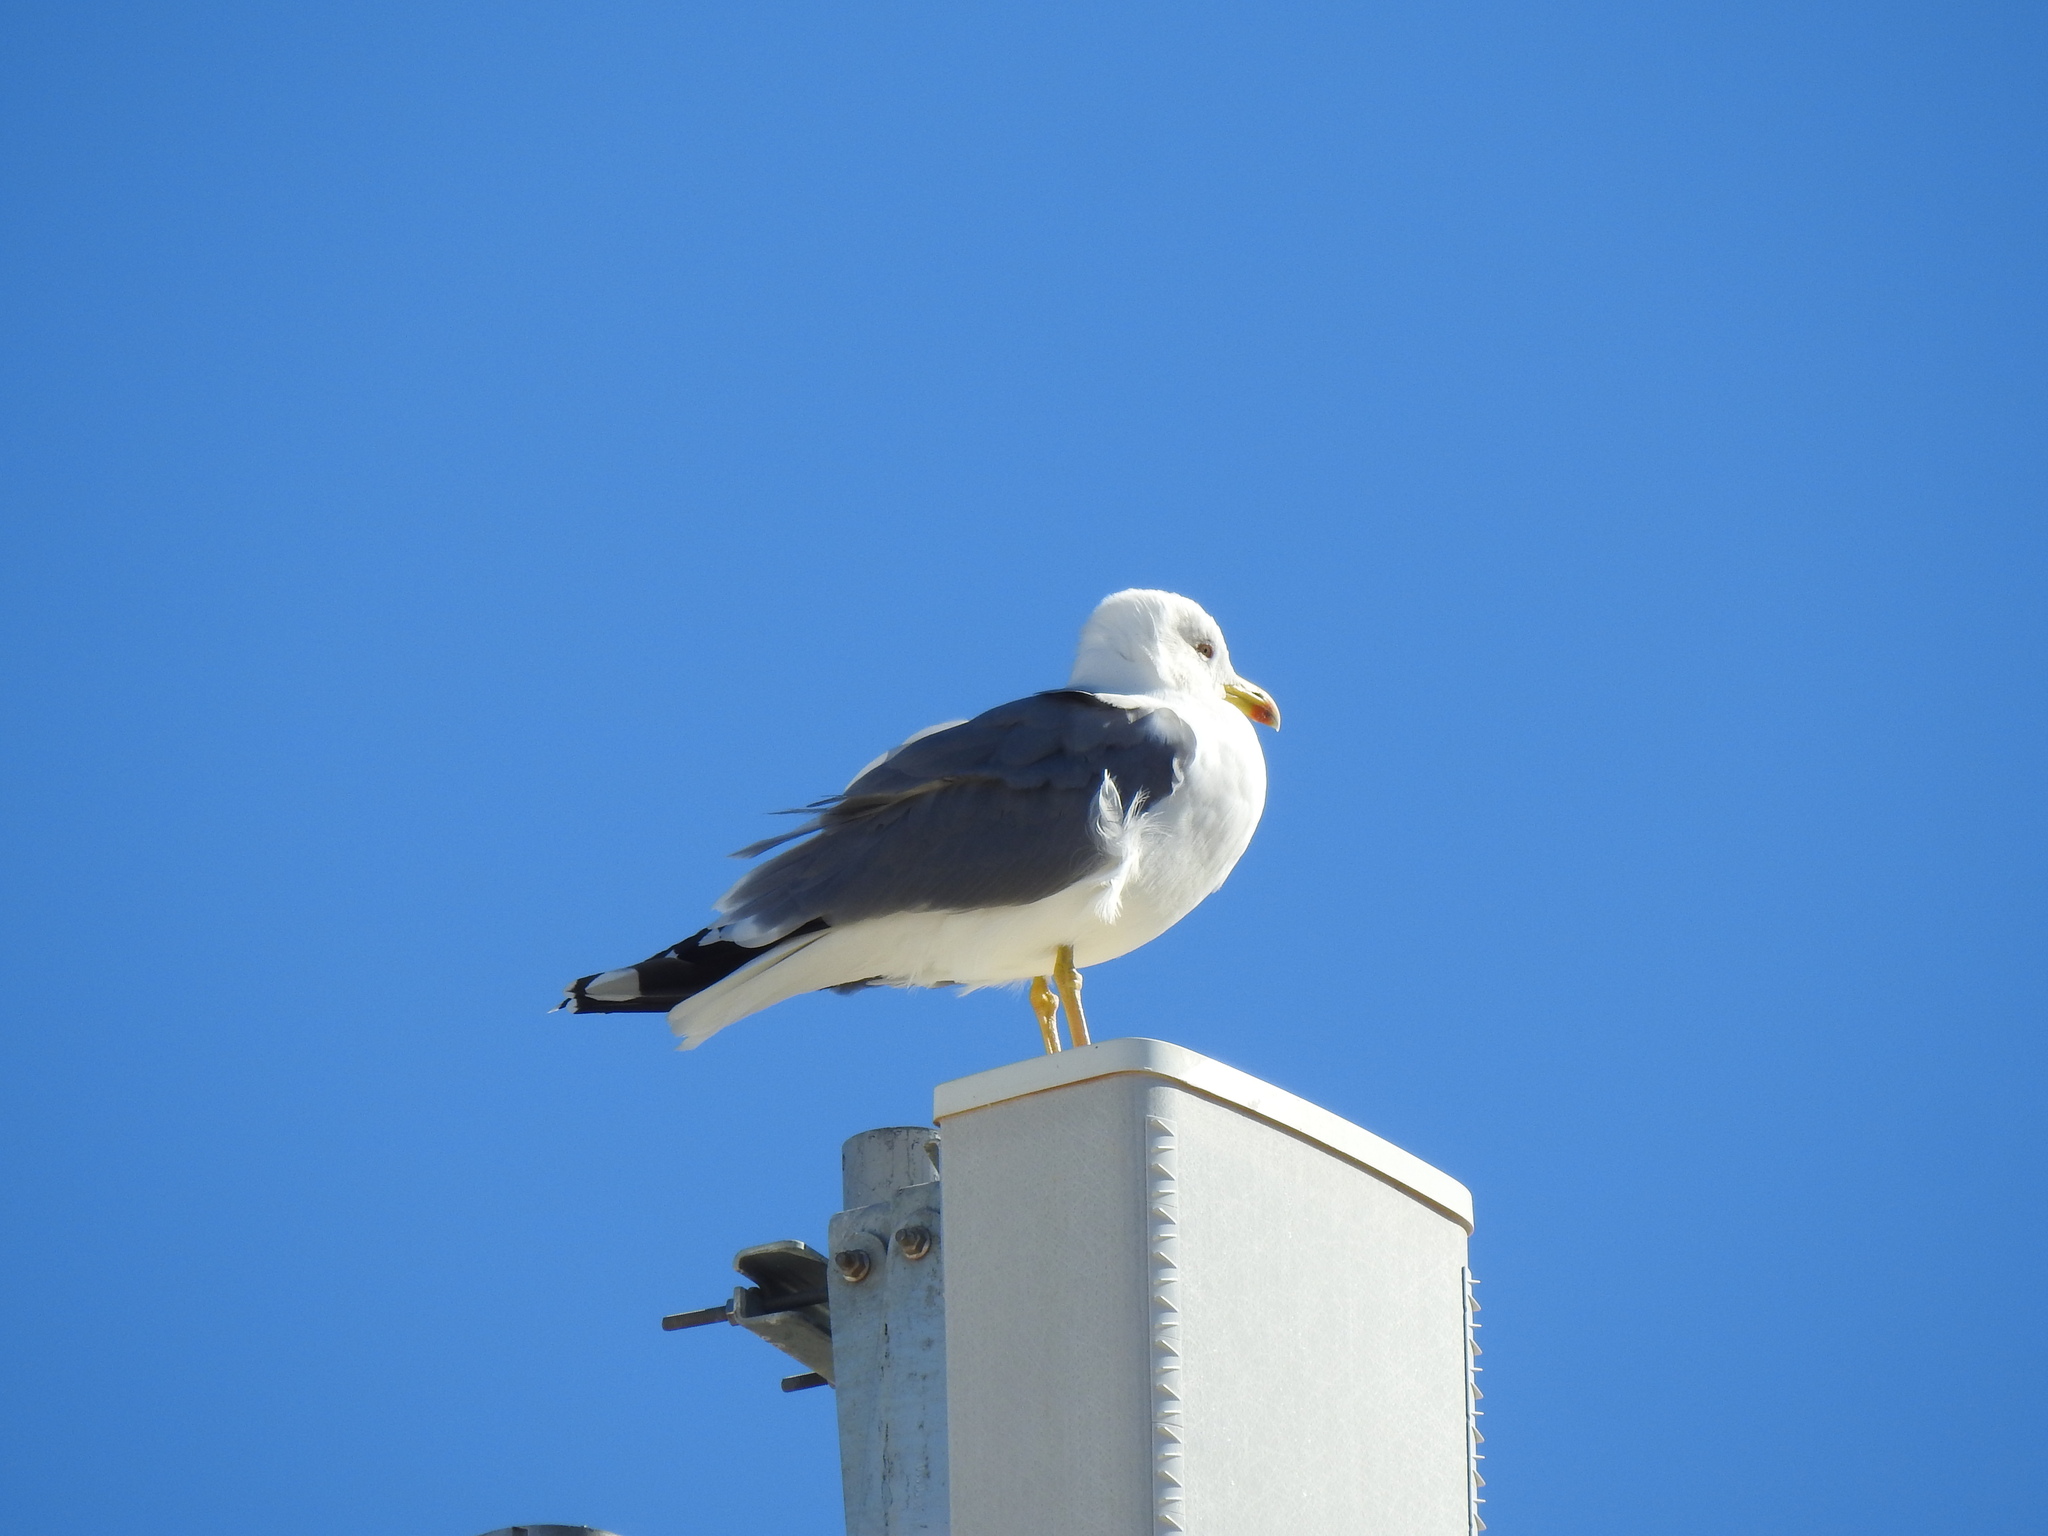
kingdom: Animalia
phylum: Chordata
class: Aves
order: Charadriiformes
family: Laridae
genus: Larus
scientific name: Larus michahellis
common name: Yellow-legged gull
